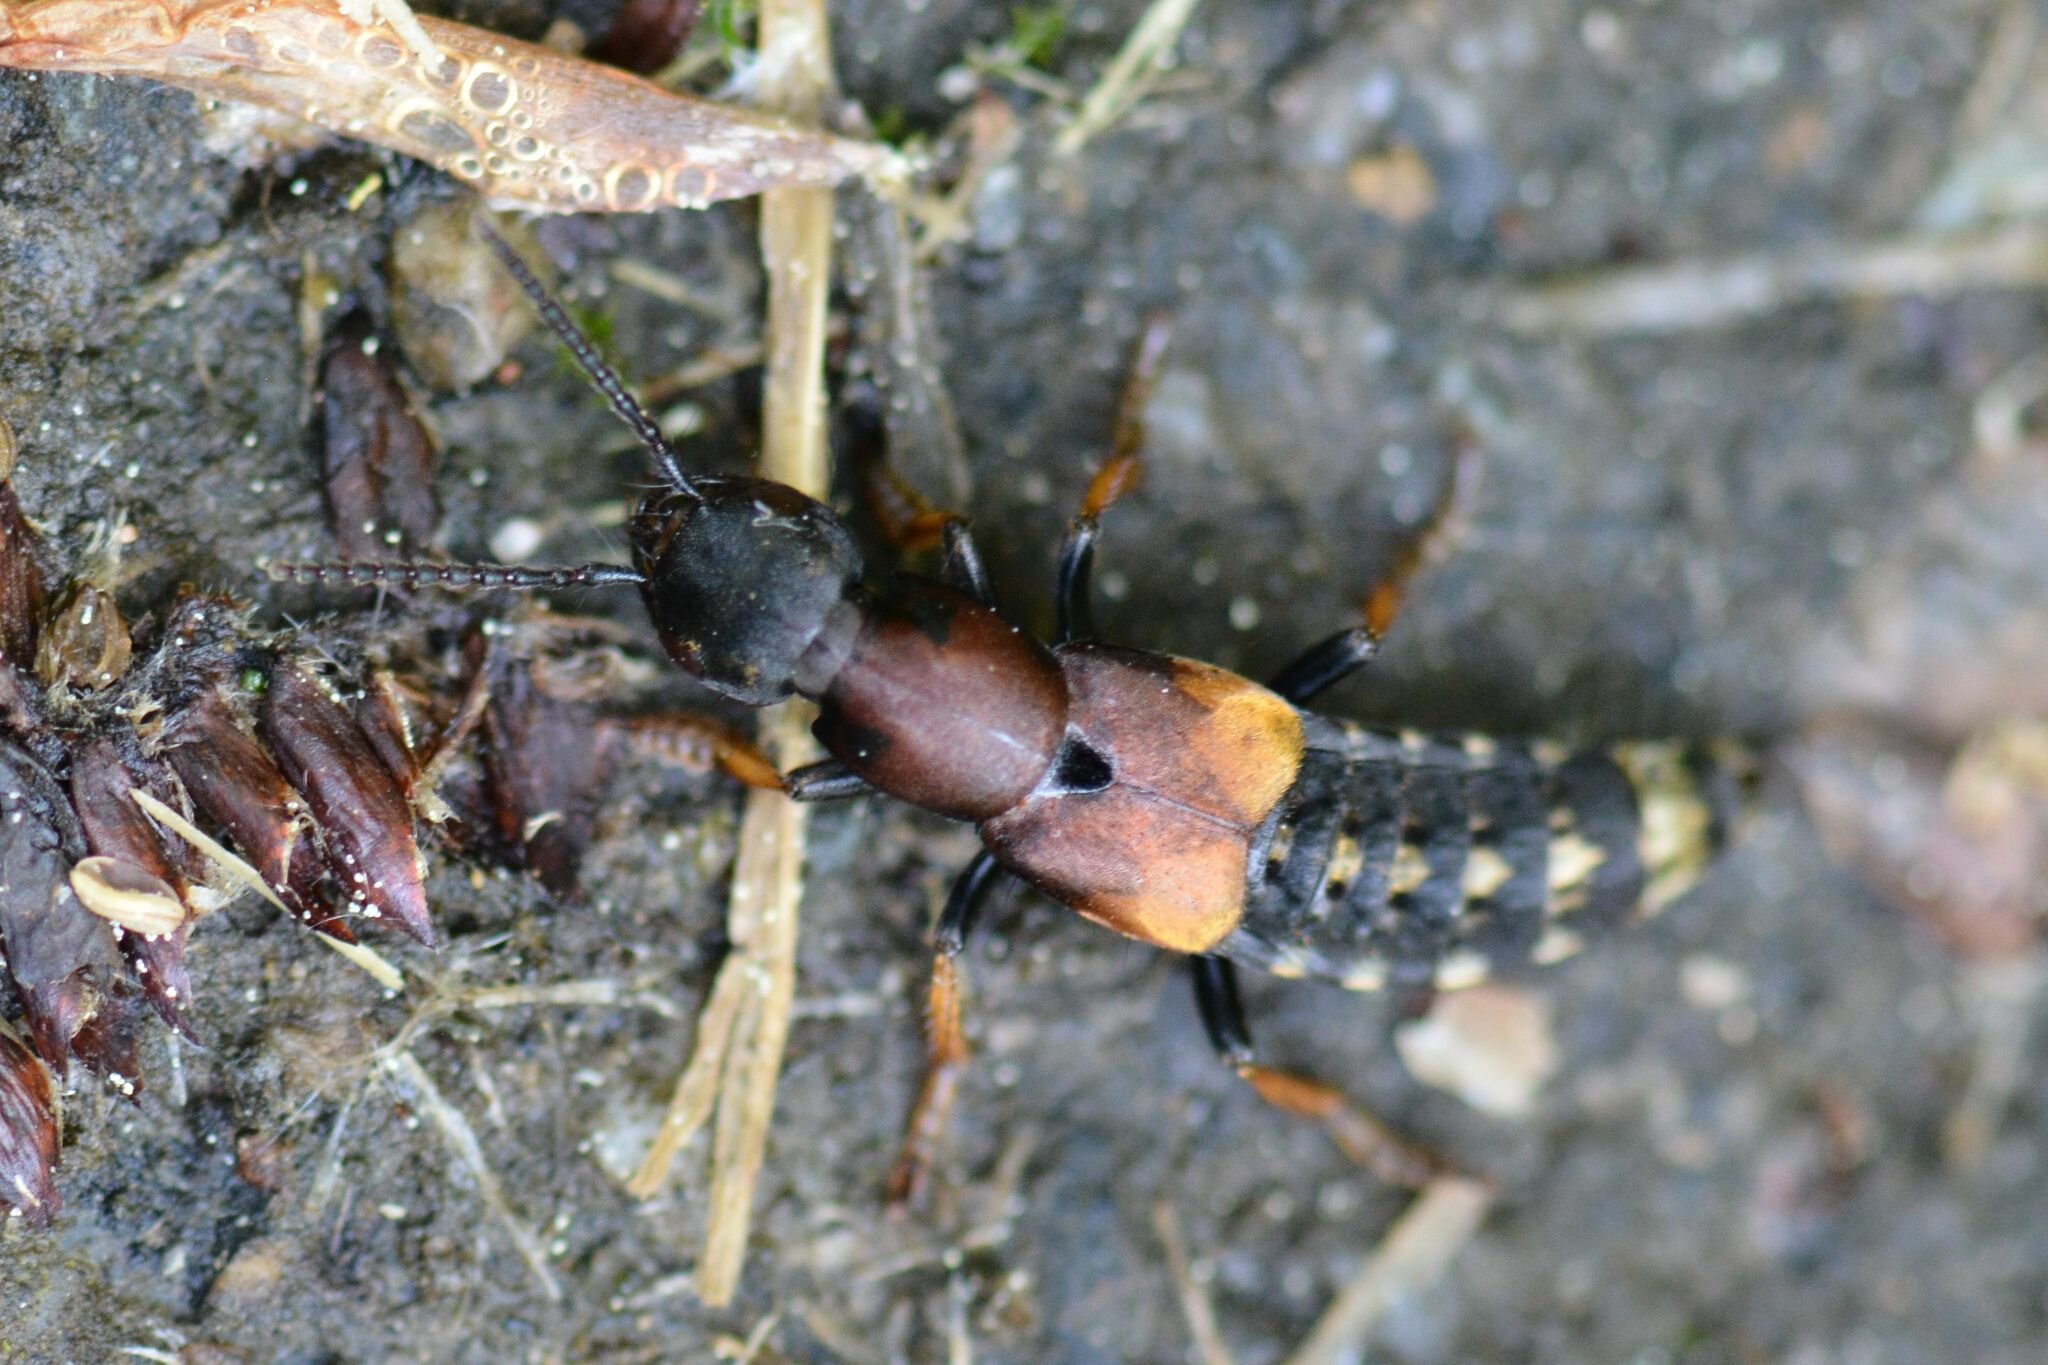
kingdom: Animalia
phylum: Arthropoda
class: Insecta
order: Coleoptera
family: Staphylinidae
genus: Dinothenarus
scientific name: Dinothenarus fossor
